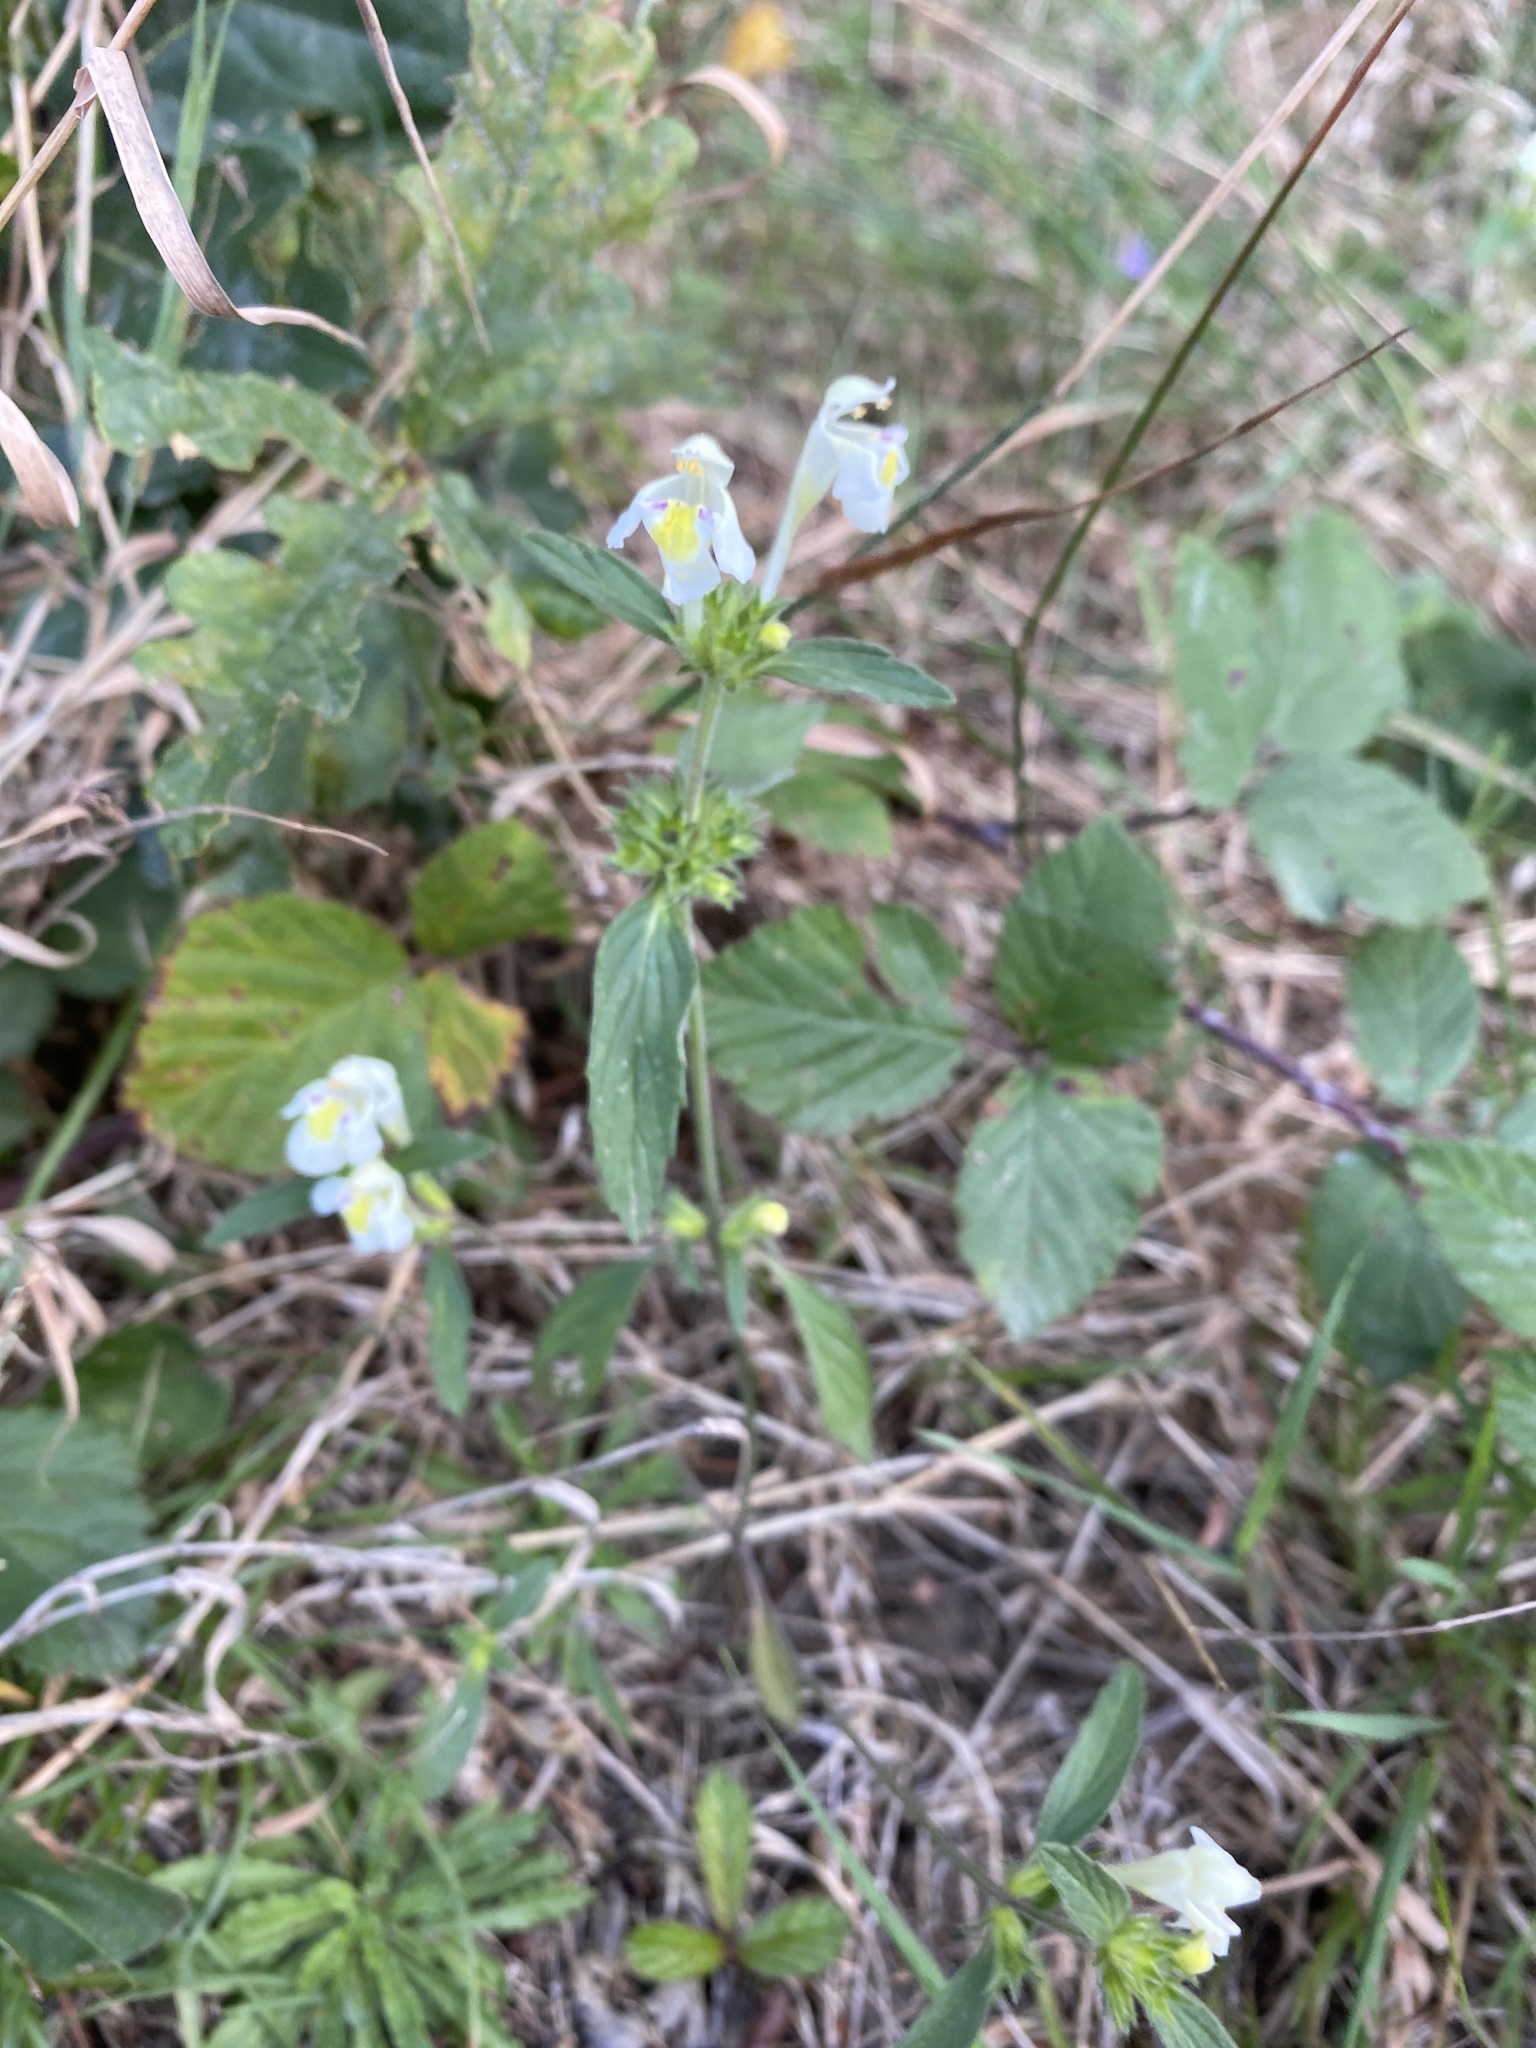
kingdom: Plantae
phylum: Tracheophyta
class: Magnoliopsida
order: Lamiales
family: Lamiaceae
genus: Galeopsis
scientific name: Galeopsis segetum
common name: Downy hemp-nettle
